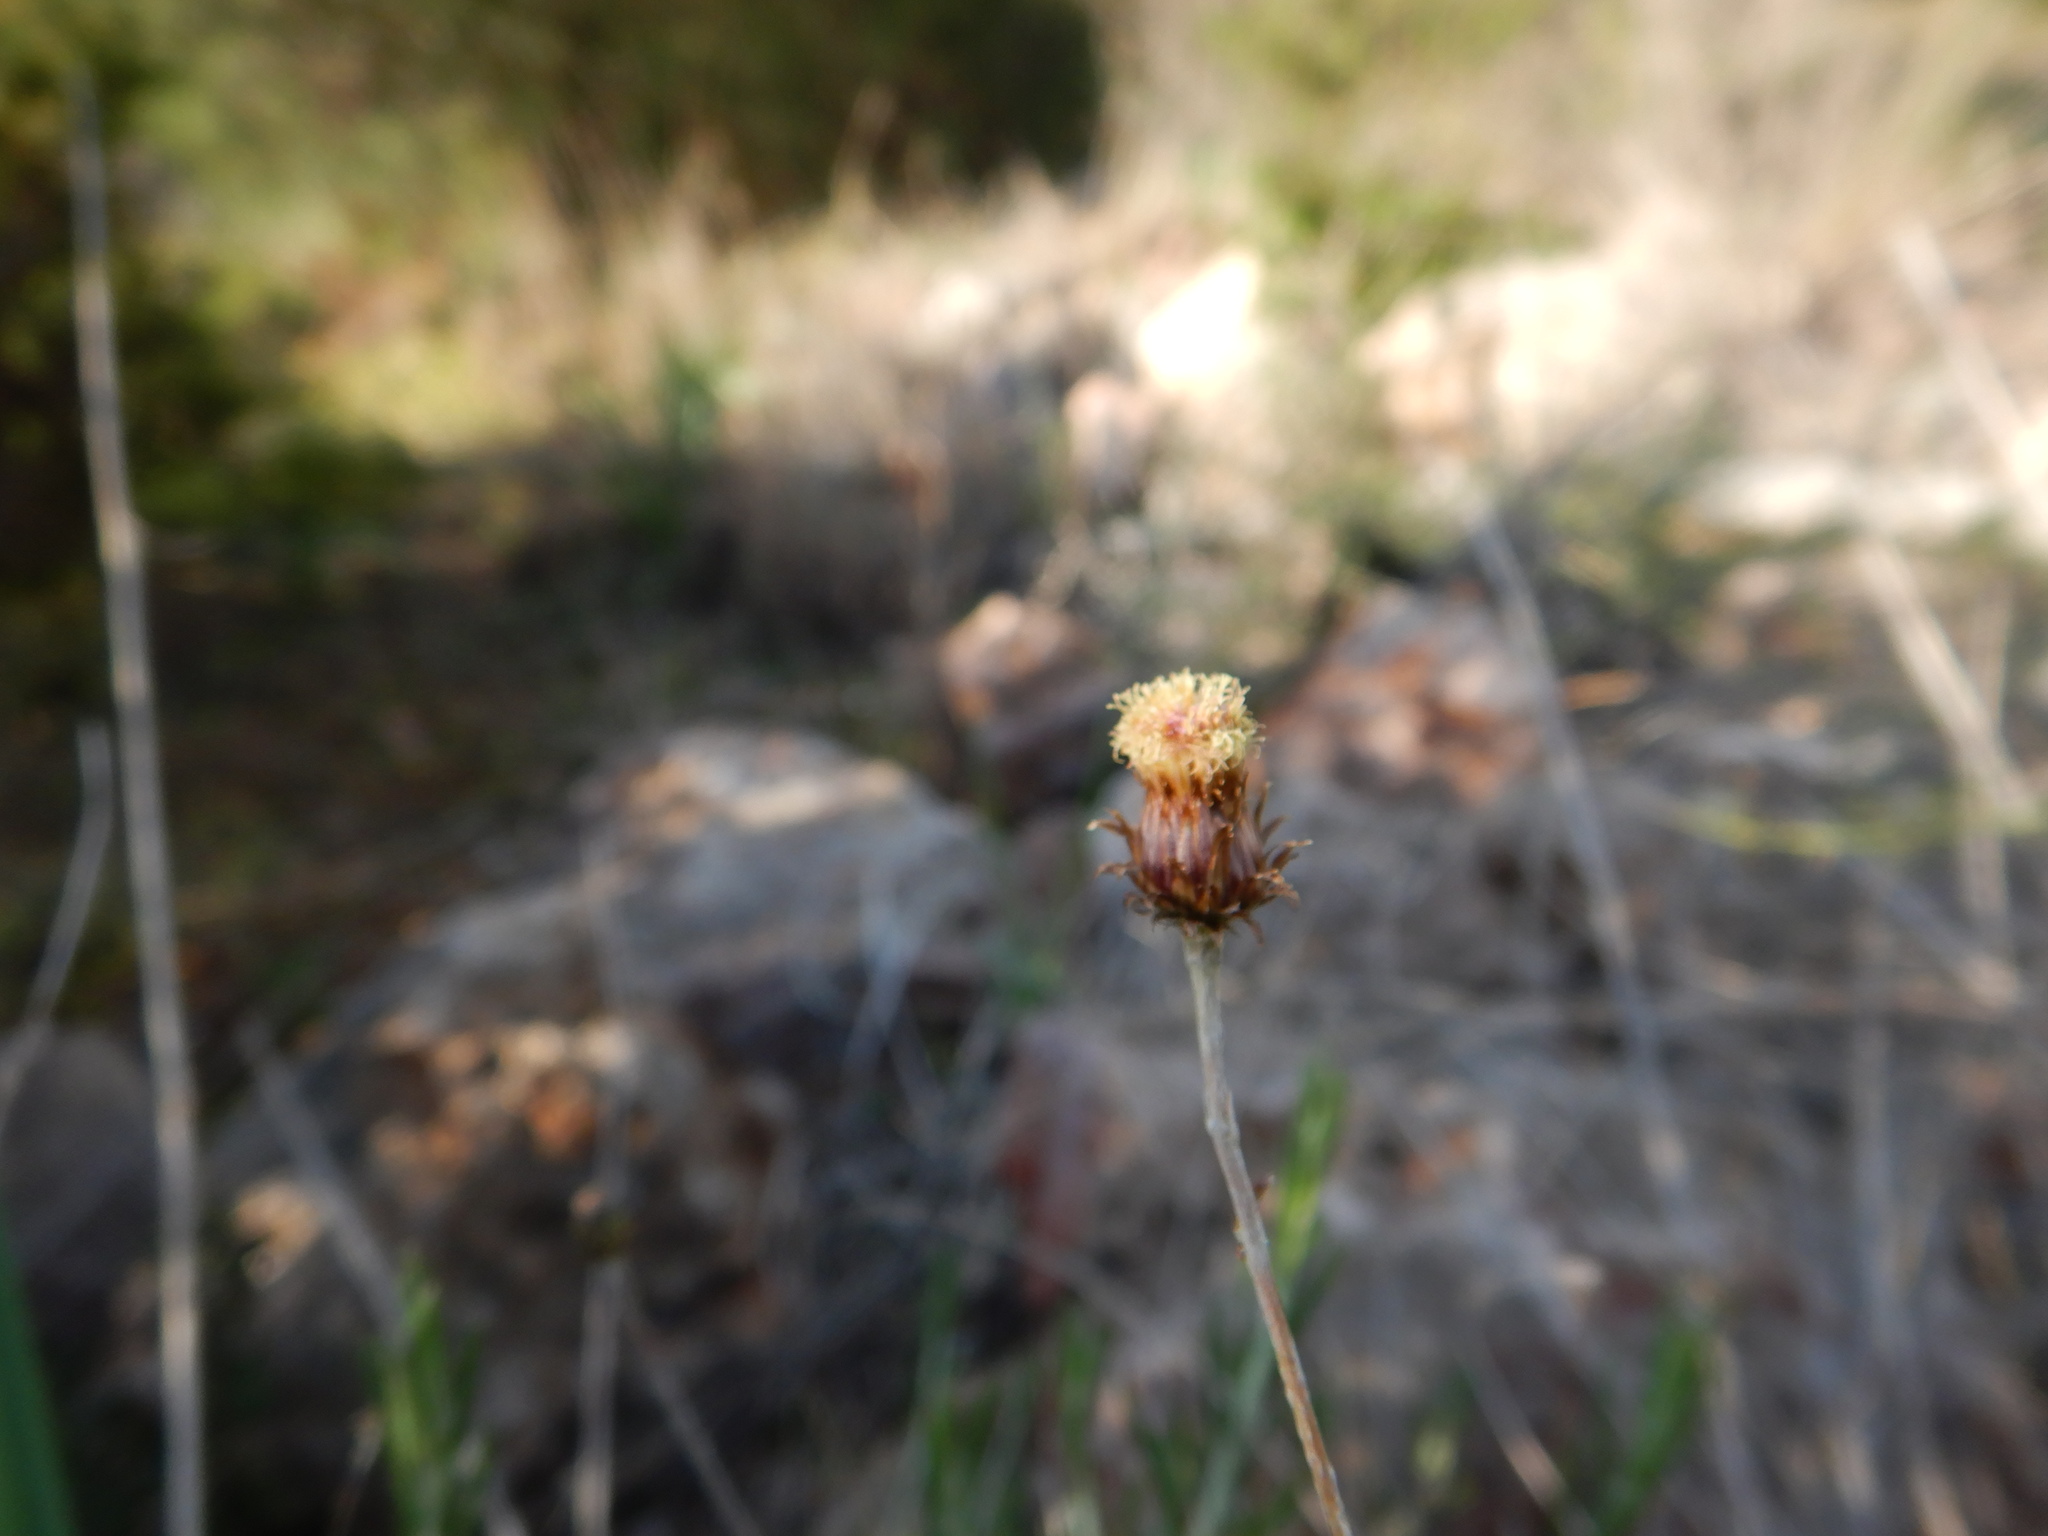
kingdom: Plantae
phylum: Tracheophyta
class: Magnoliopsida
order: Asterales
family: Asteraceae
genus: Phagnalon
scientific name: Phagnalon saxatile
